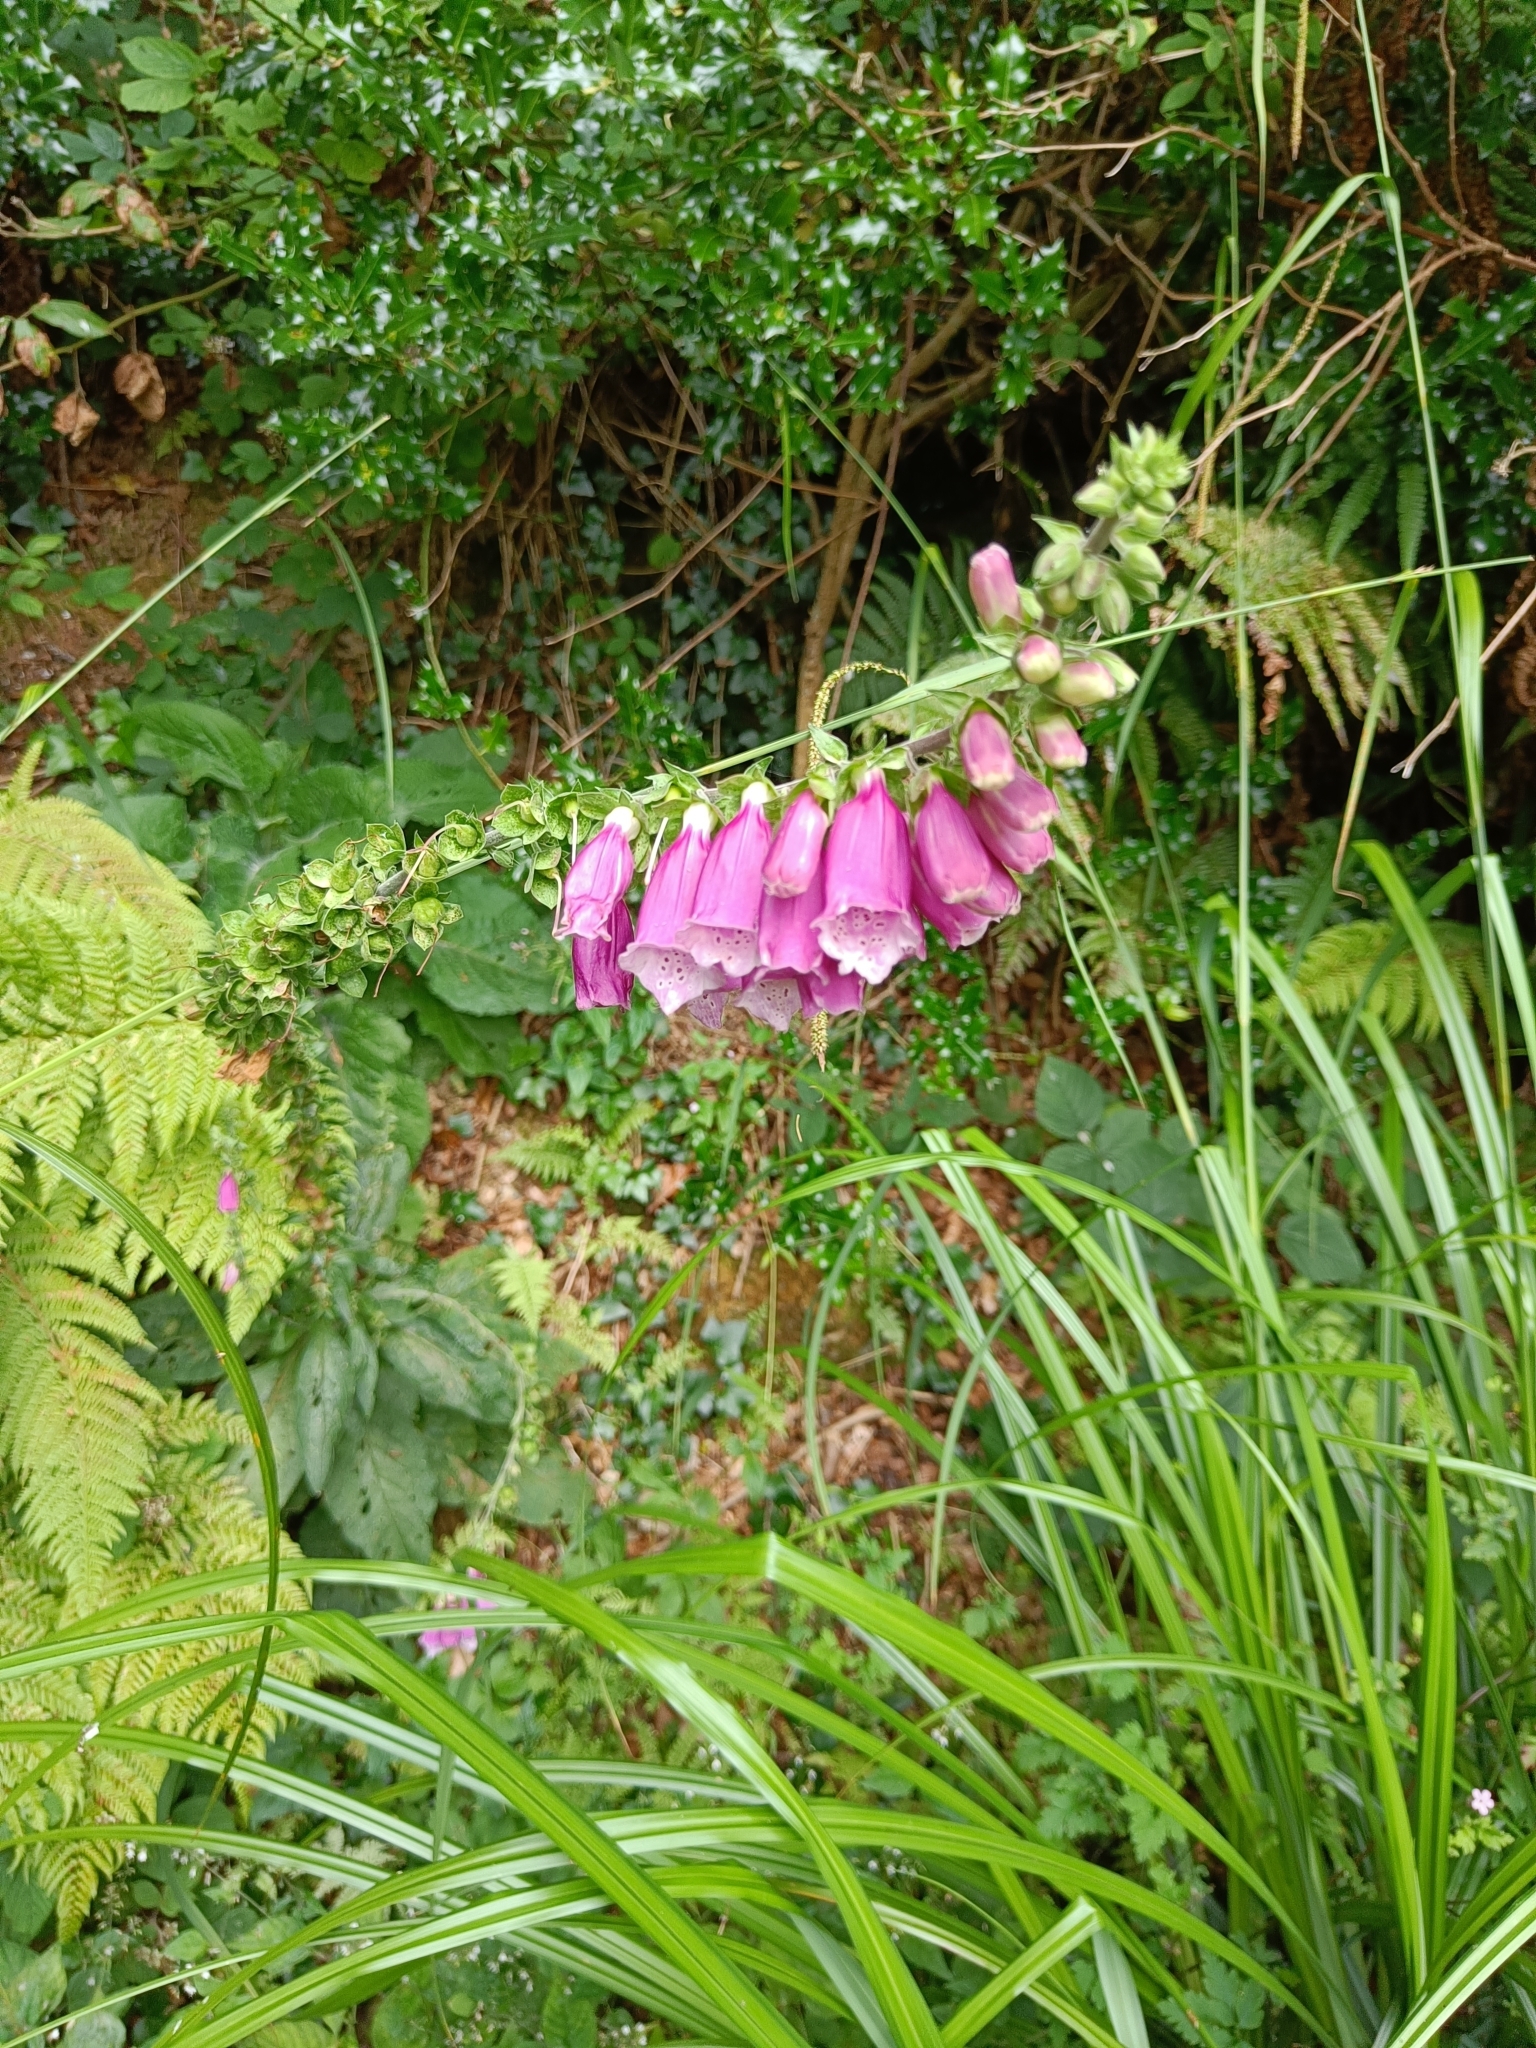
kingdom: Plantae
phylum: Tracheophyta
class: Magnoliopsida
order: Lamiales
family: Plantaginaceae
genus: Digitalis
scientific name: Digitalis purpurea
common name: Foxglove
